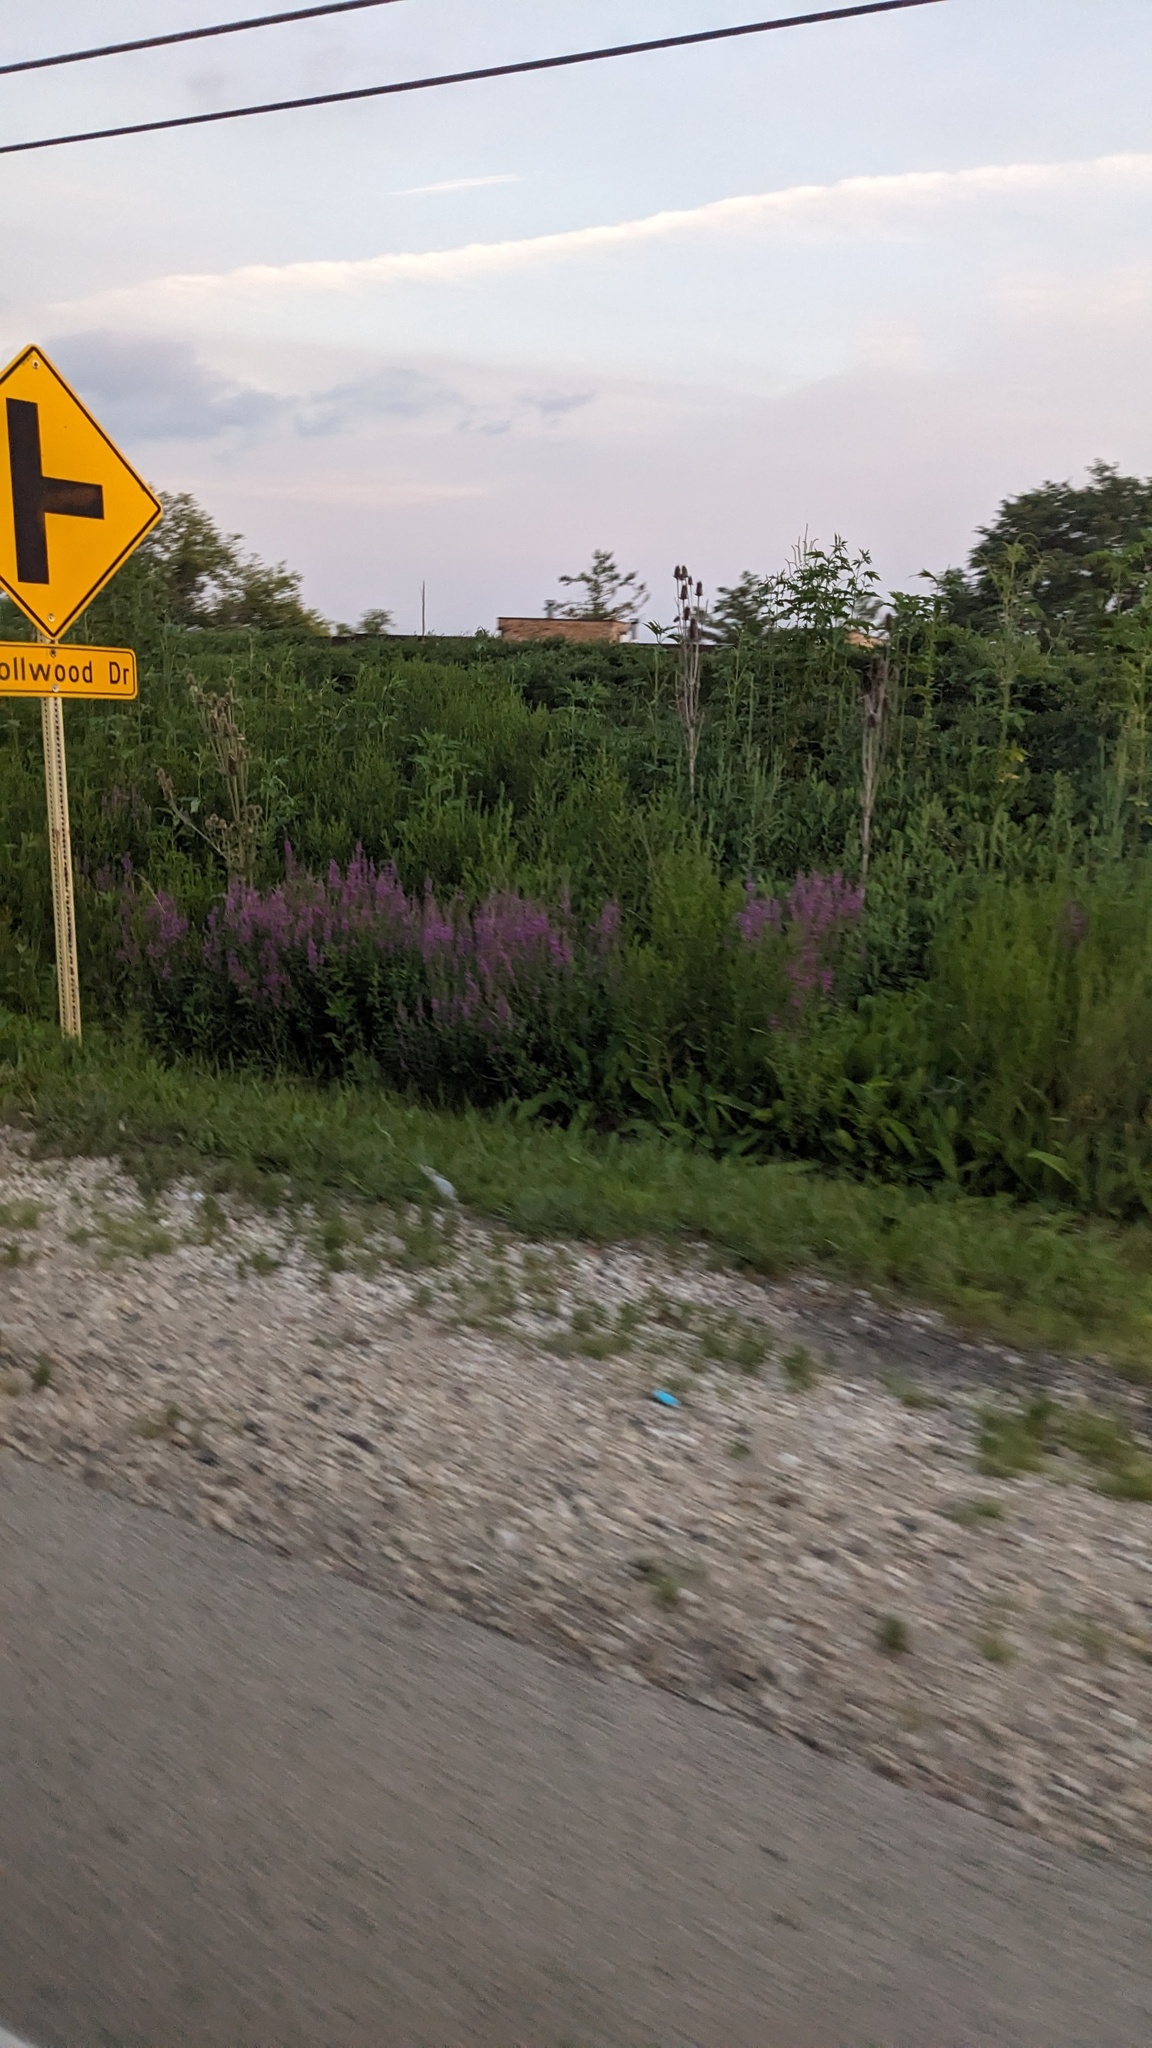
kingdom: Plantae
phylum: Tracheophyta
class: Magnoliopsida
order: Myrtales
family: Lythraceae
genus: Lythrum
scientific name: Lythrum salicaria
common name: Purple loosestrife
